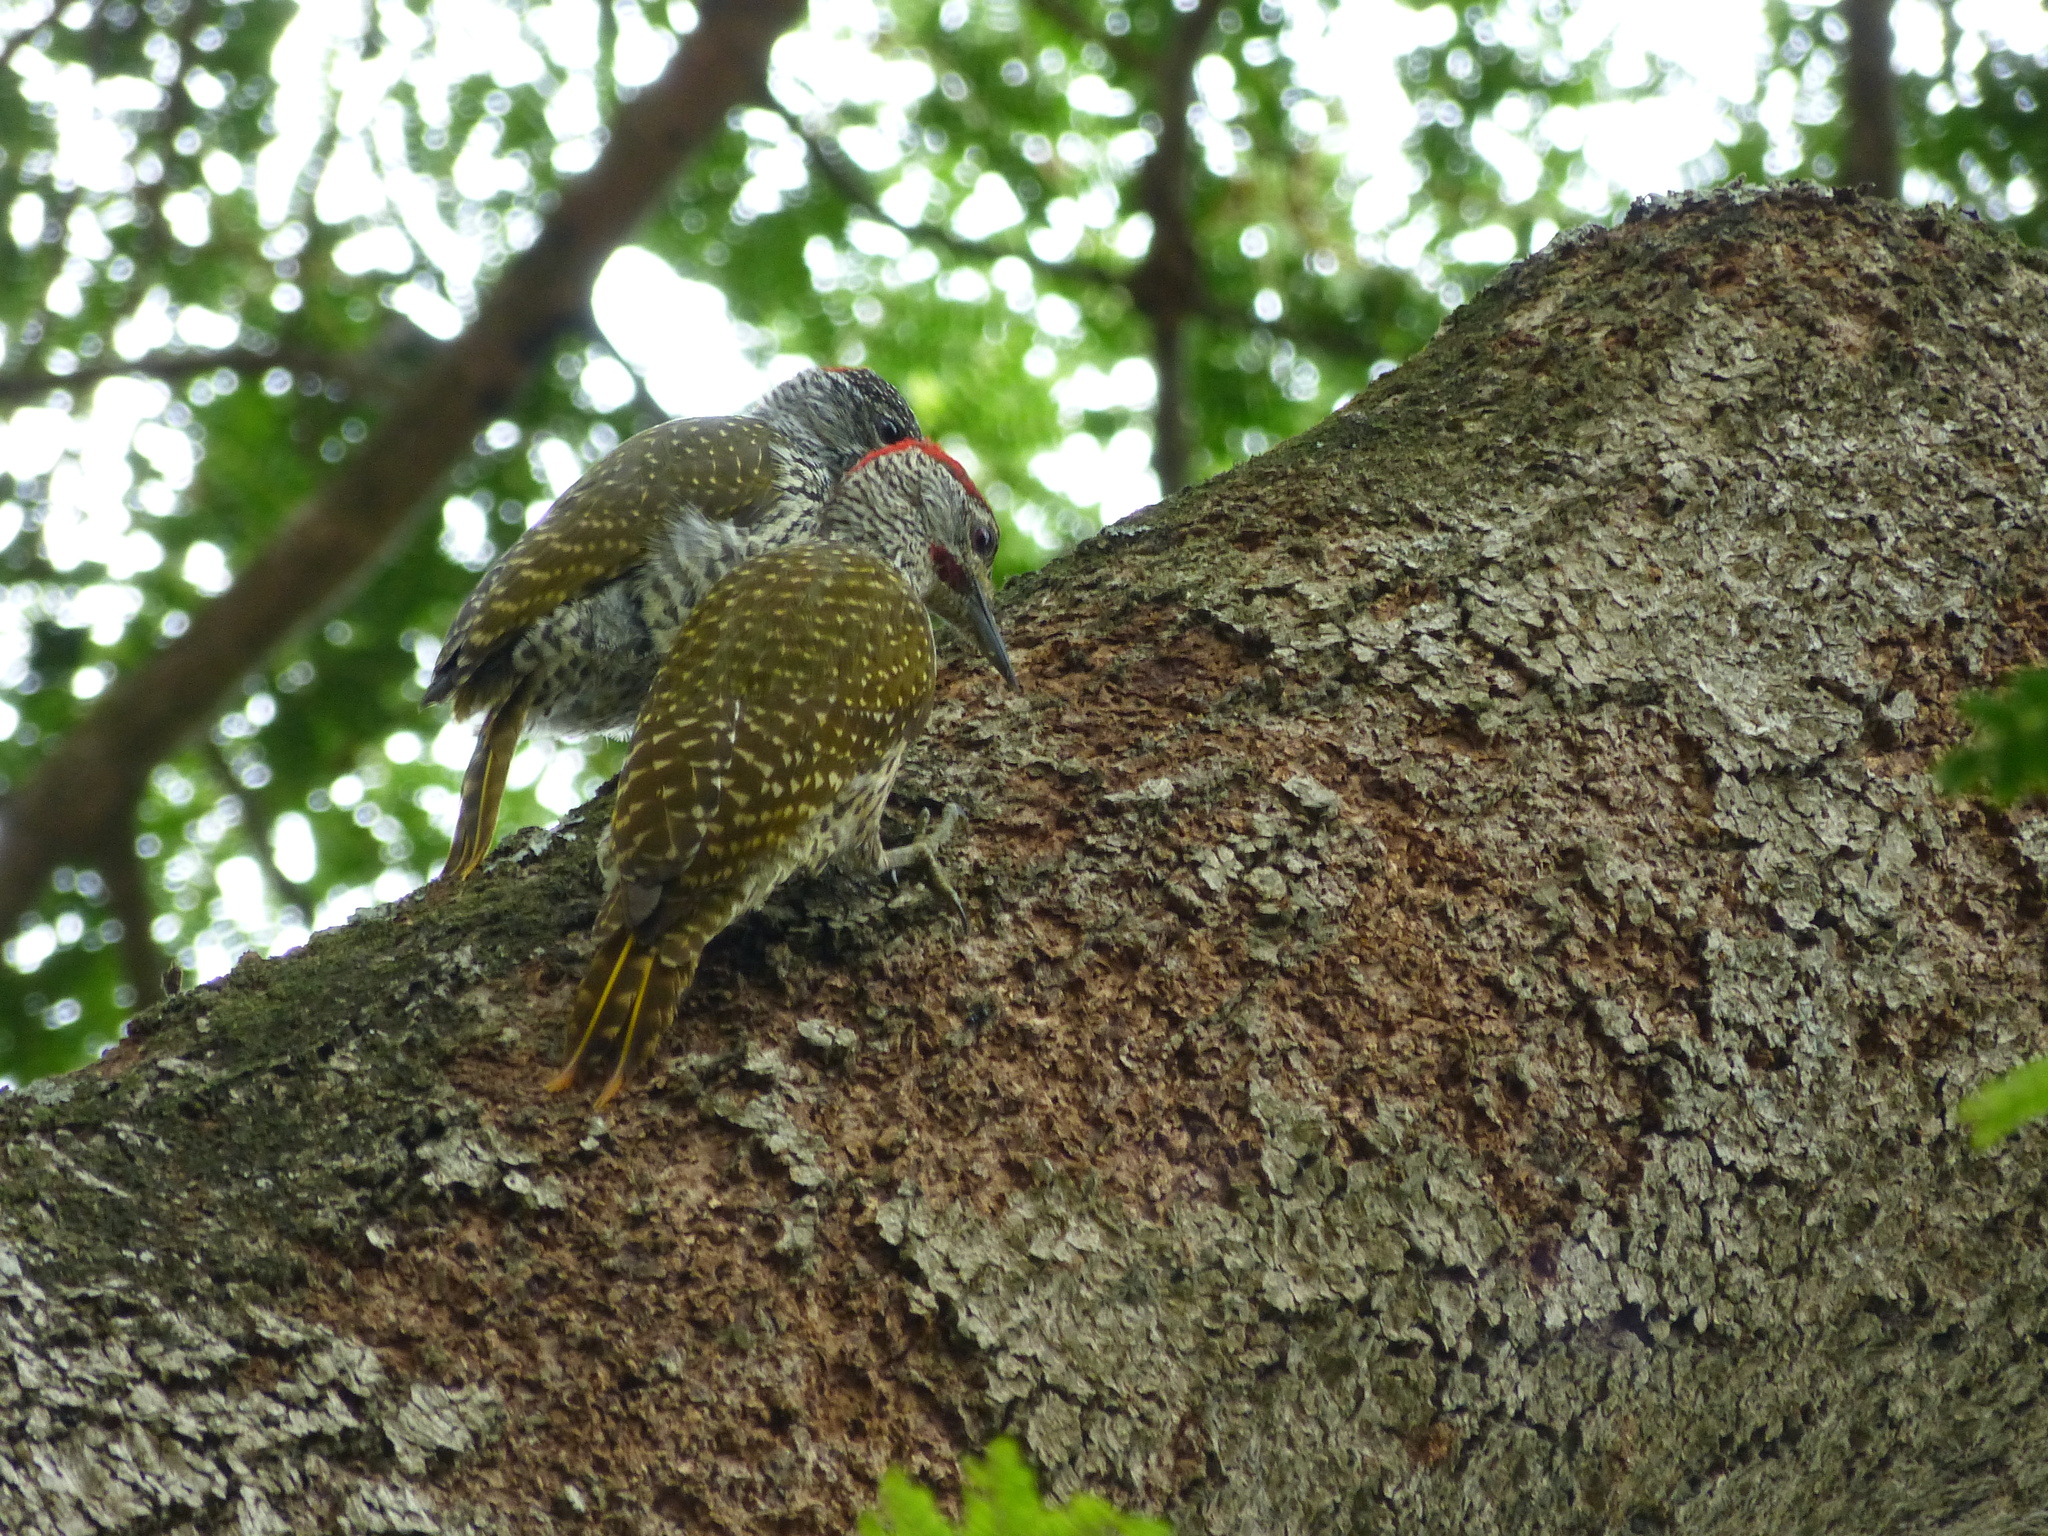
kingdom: Animalia
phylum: Chordata
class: Aves
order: Piciformes
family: Picidae
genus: Campethera
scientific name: Campethera abingoni
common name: Golden-tailed woodpecker
